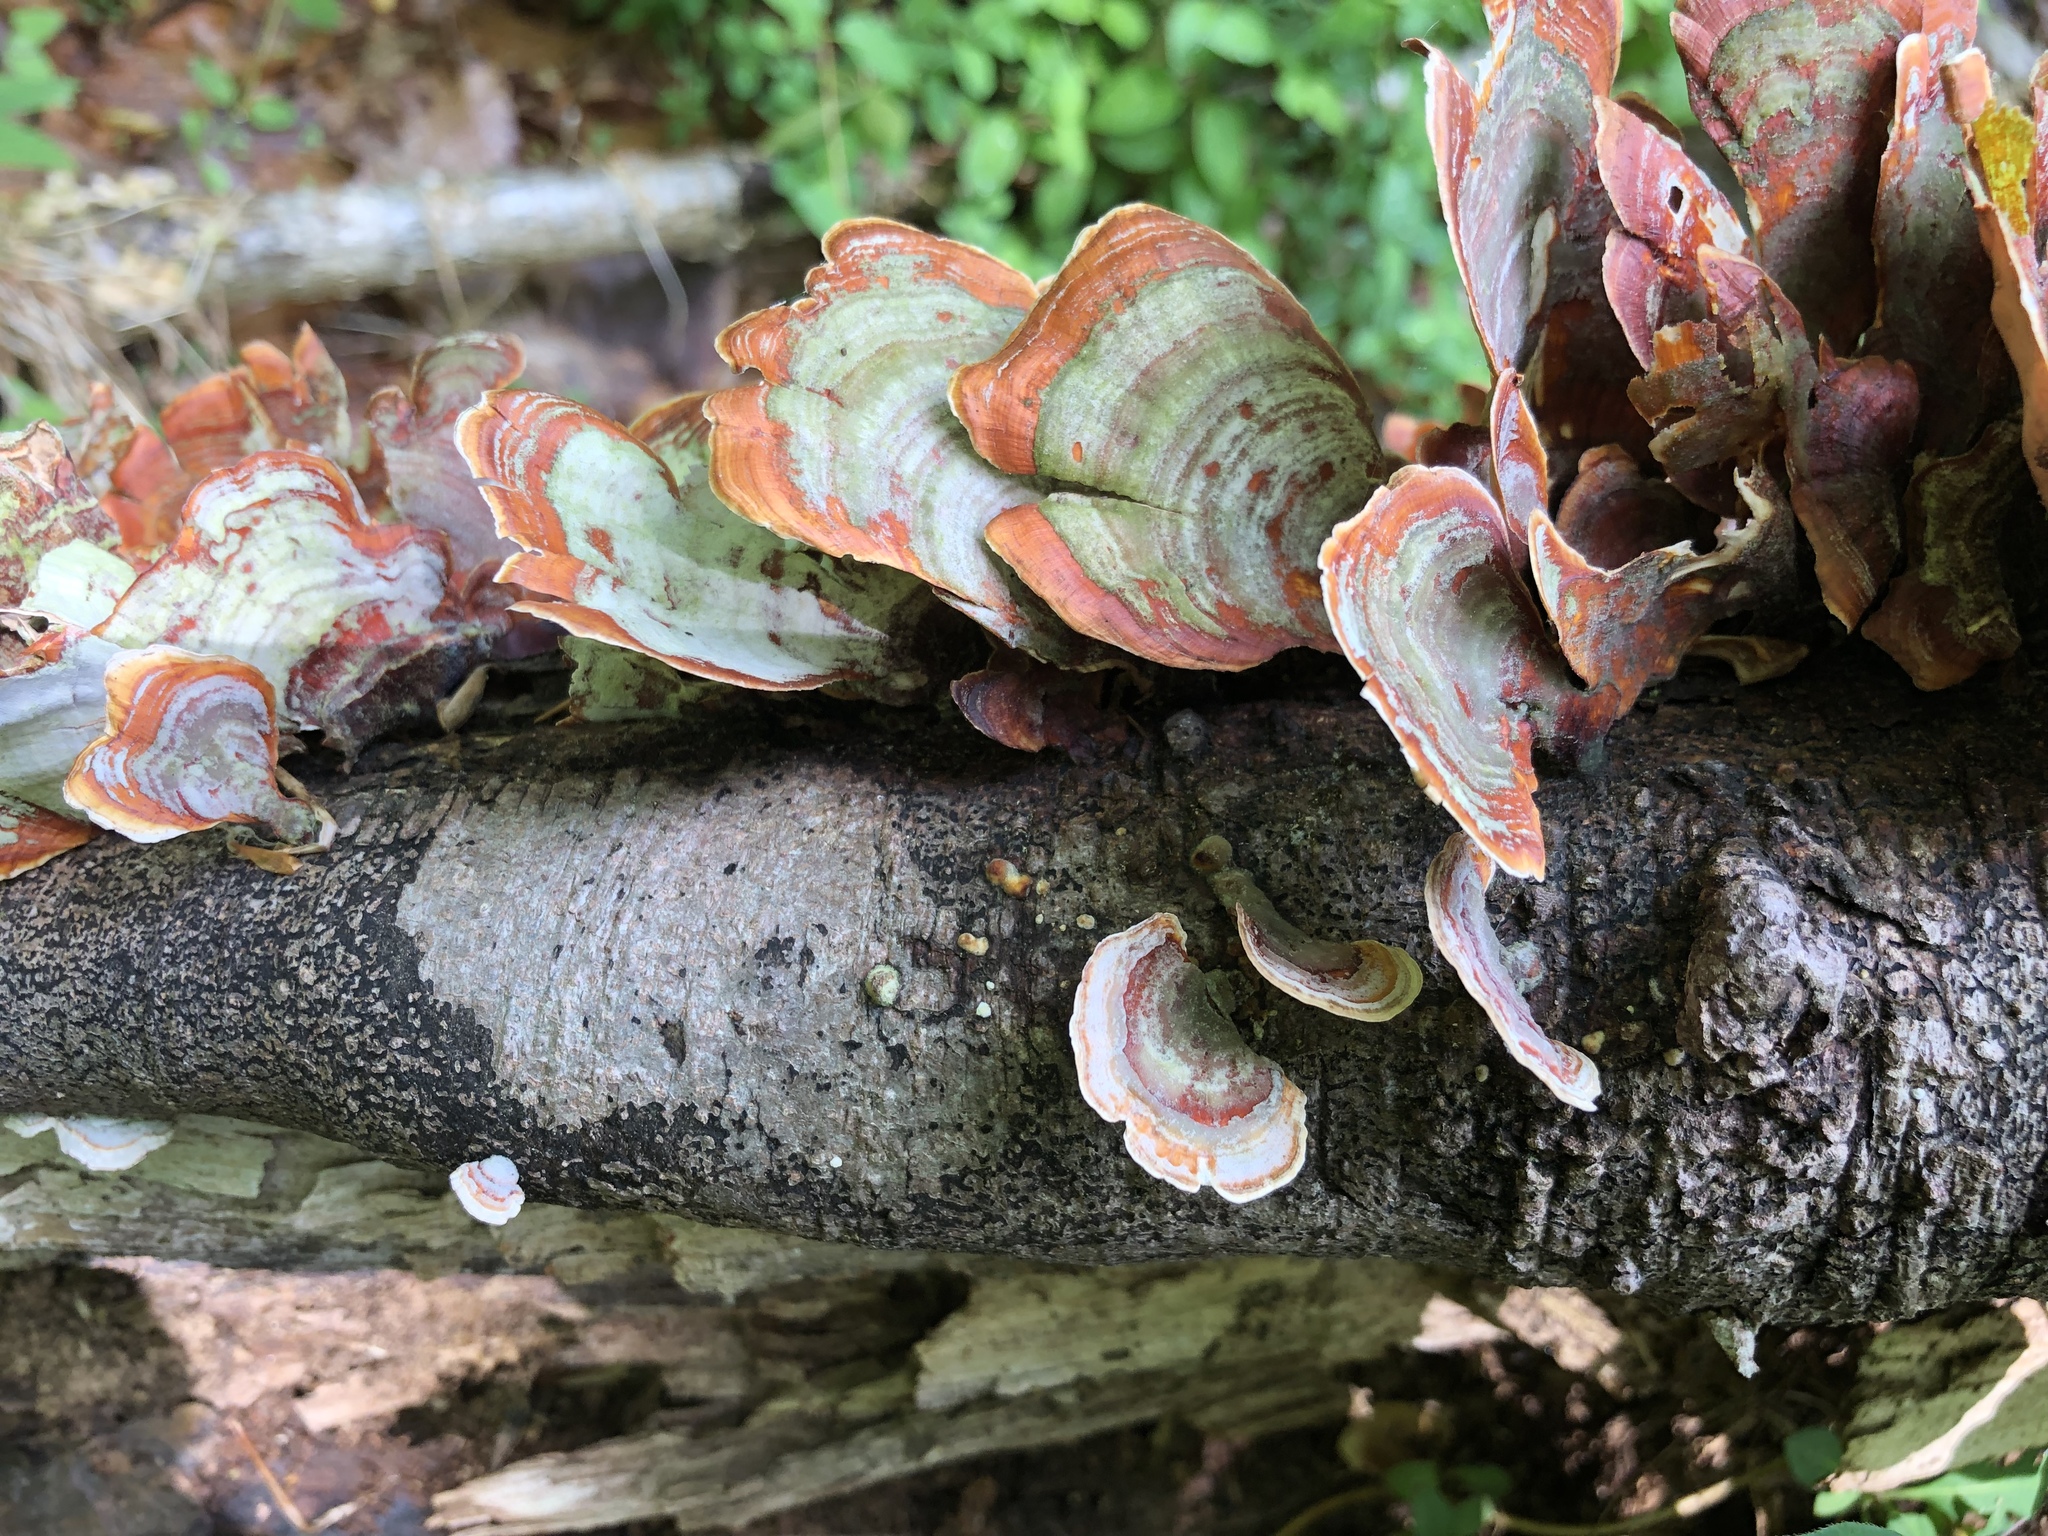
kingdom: Fungi
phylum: Basidiomycota
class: Agaricomycetes
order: Russulales
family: Stereaceae
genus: Stereum
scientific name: Stereum ostrea
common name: False turkeytail
